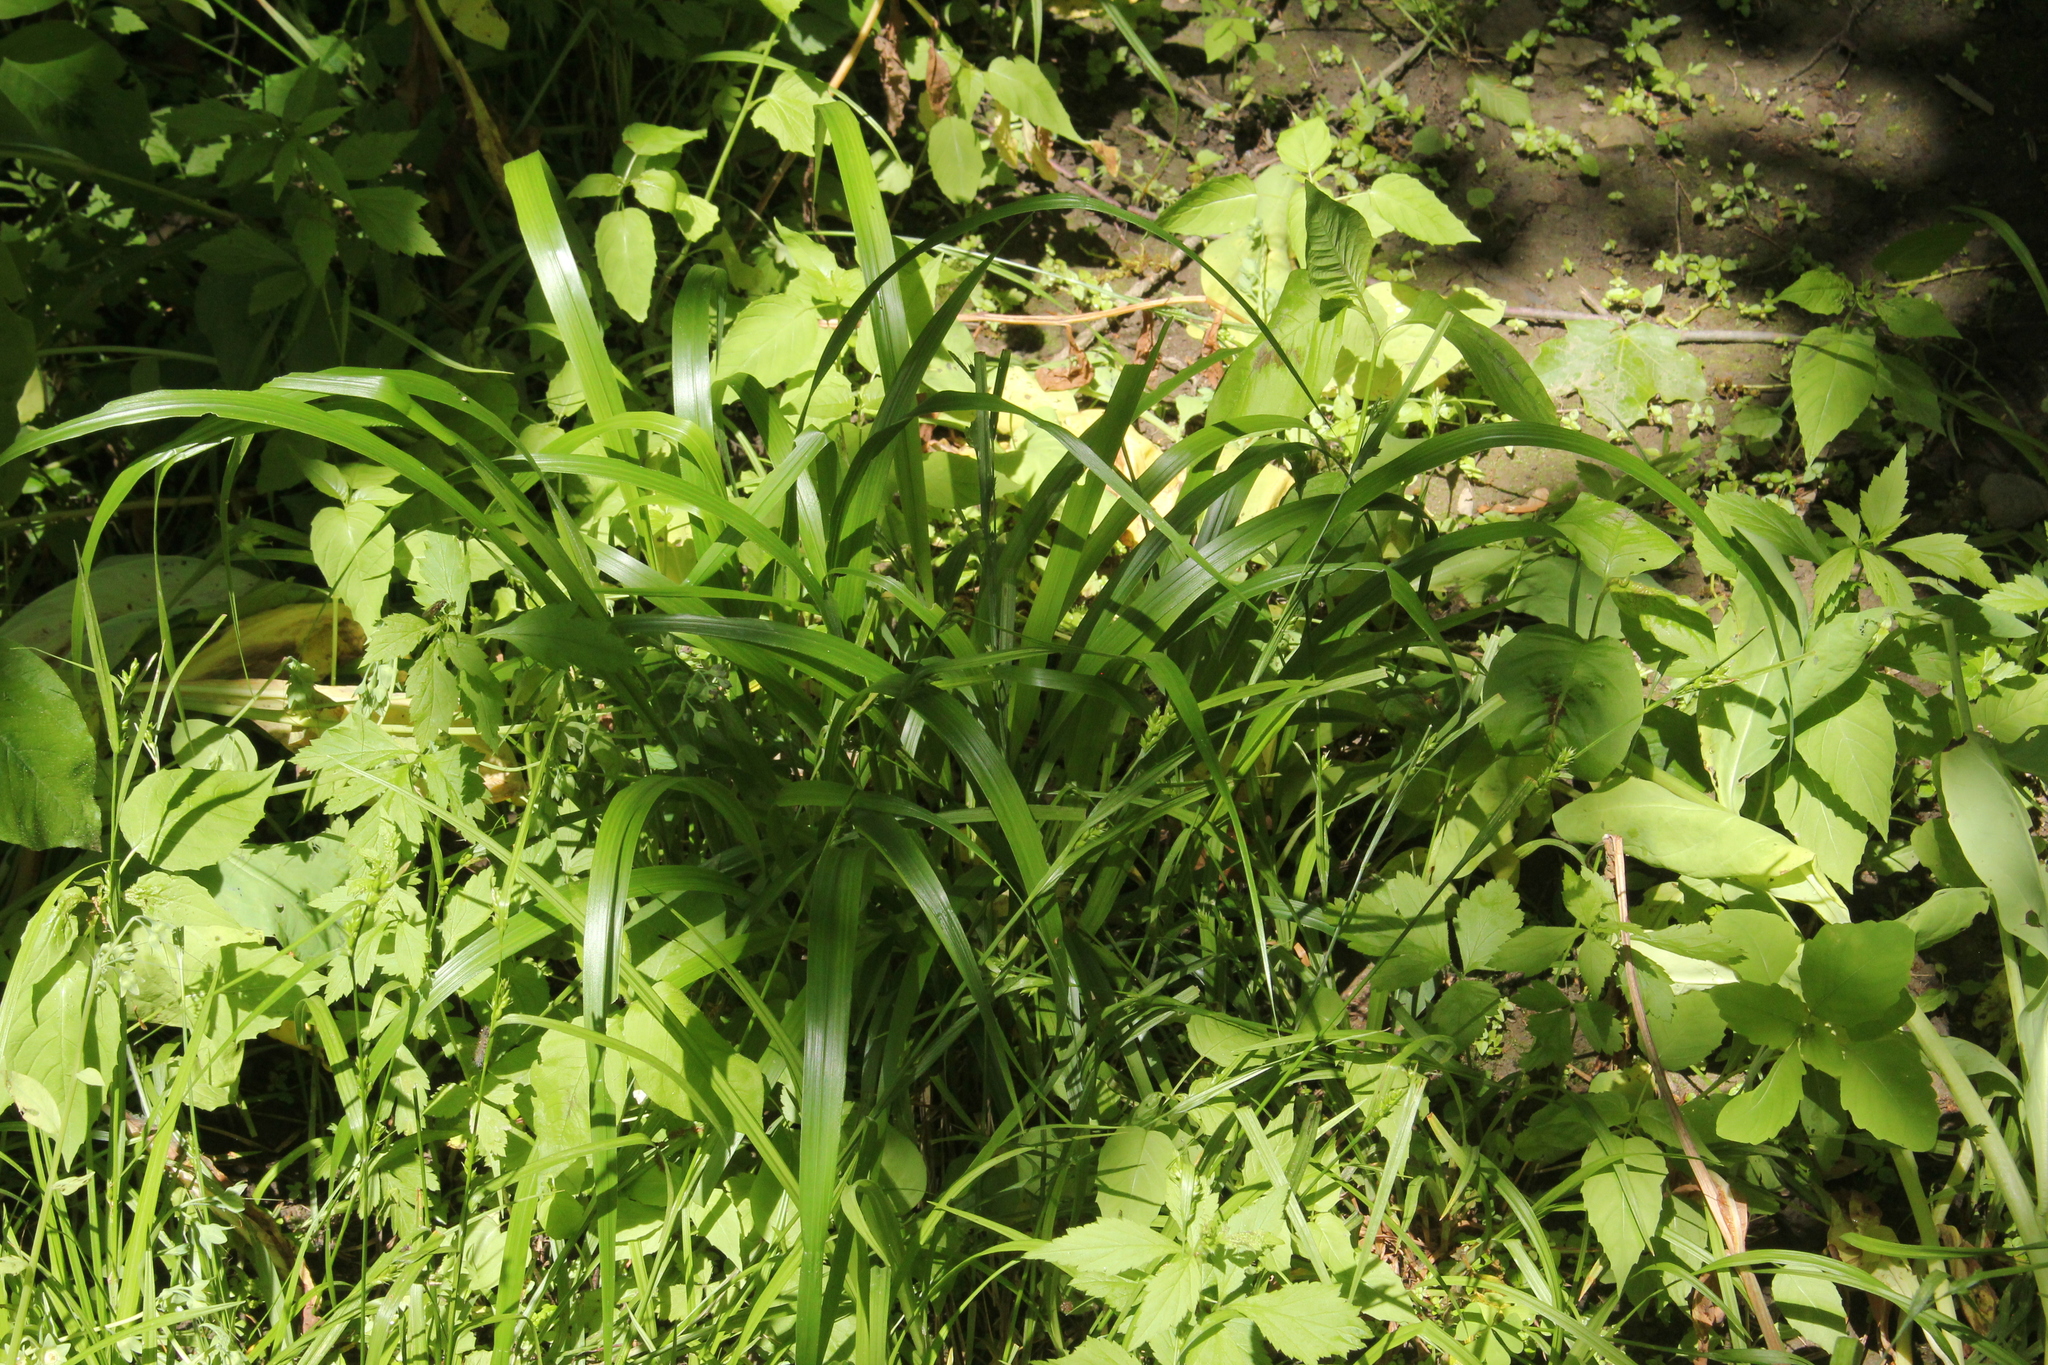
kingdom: Plantae
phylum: Tracheophyta
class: Liliopsida
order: Poales
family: Poaceae
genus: Diarrhena
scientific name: Diarrhena obovata
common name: Beakgrass
